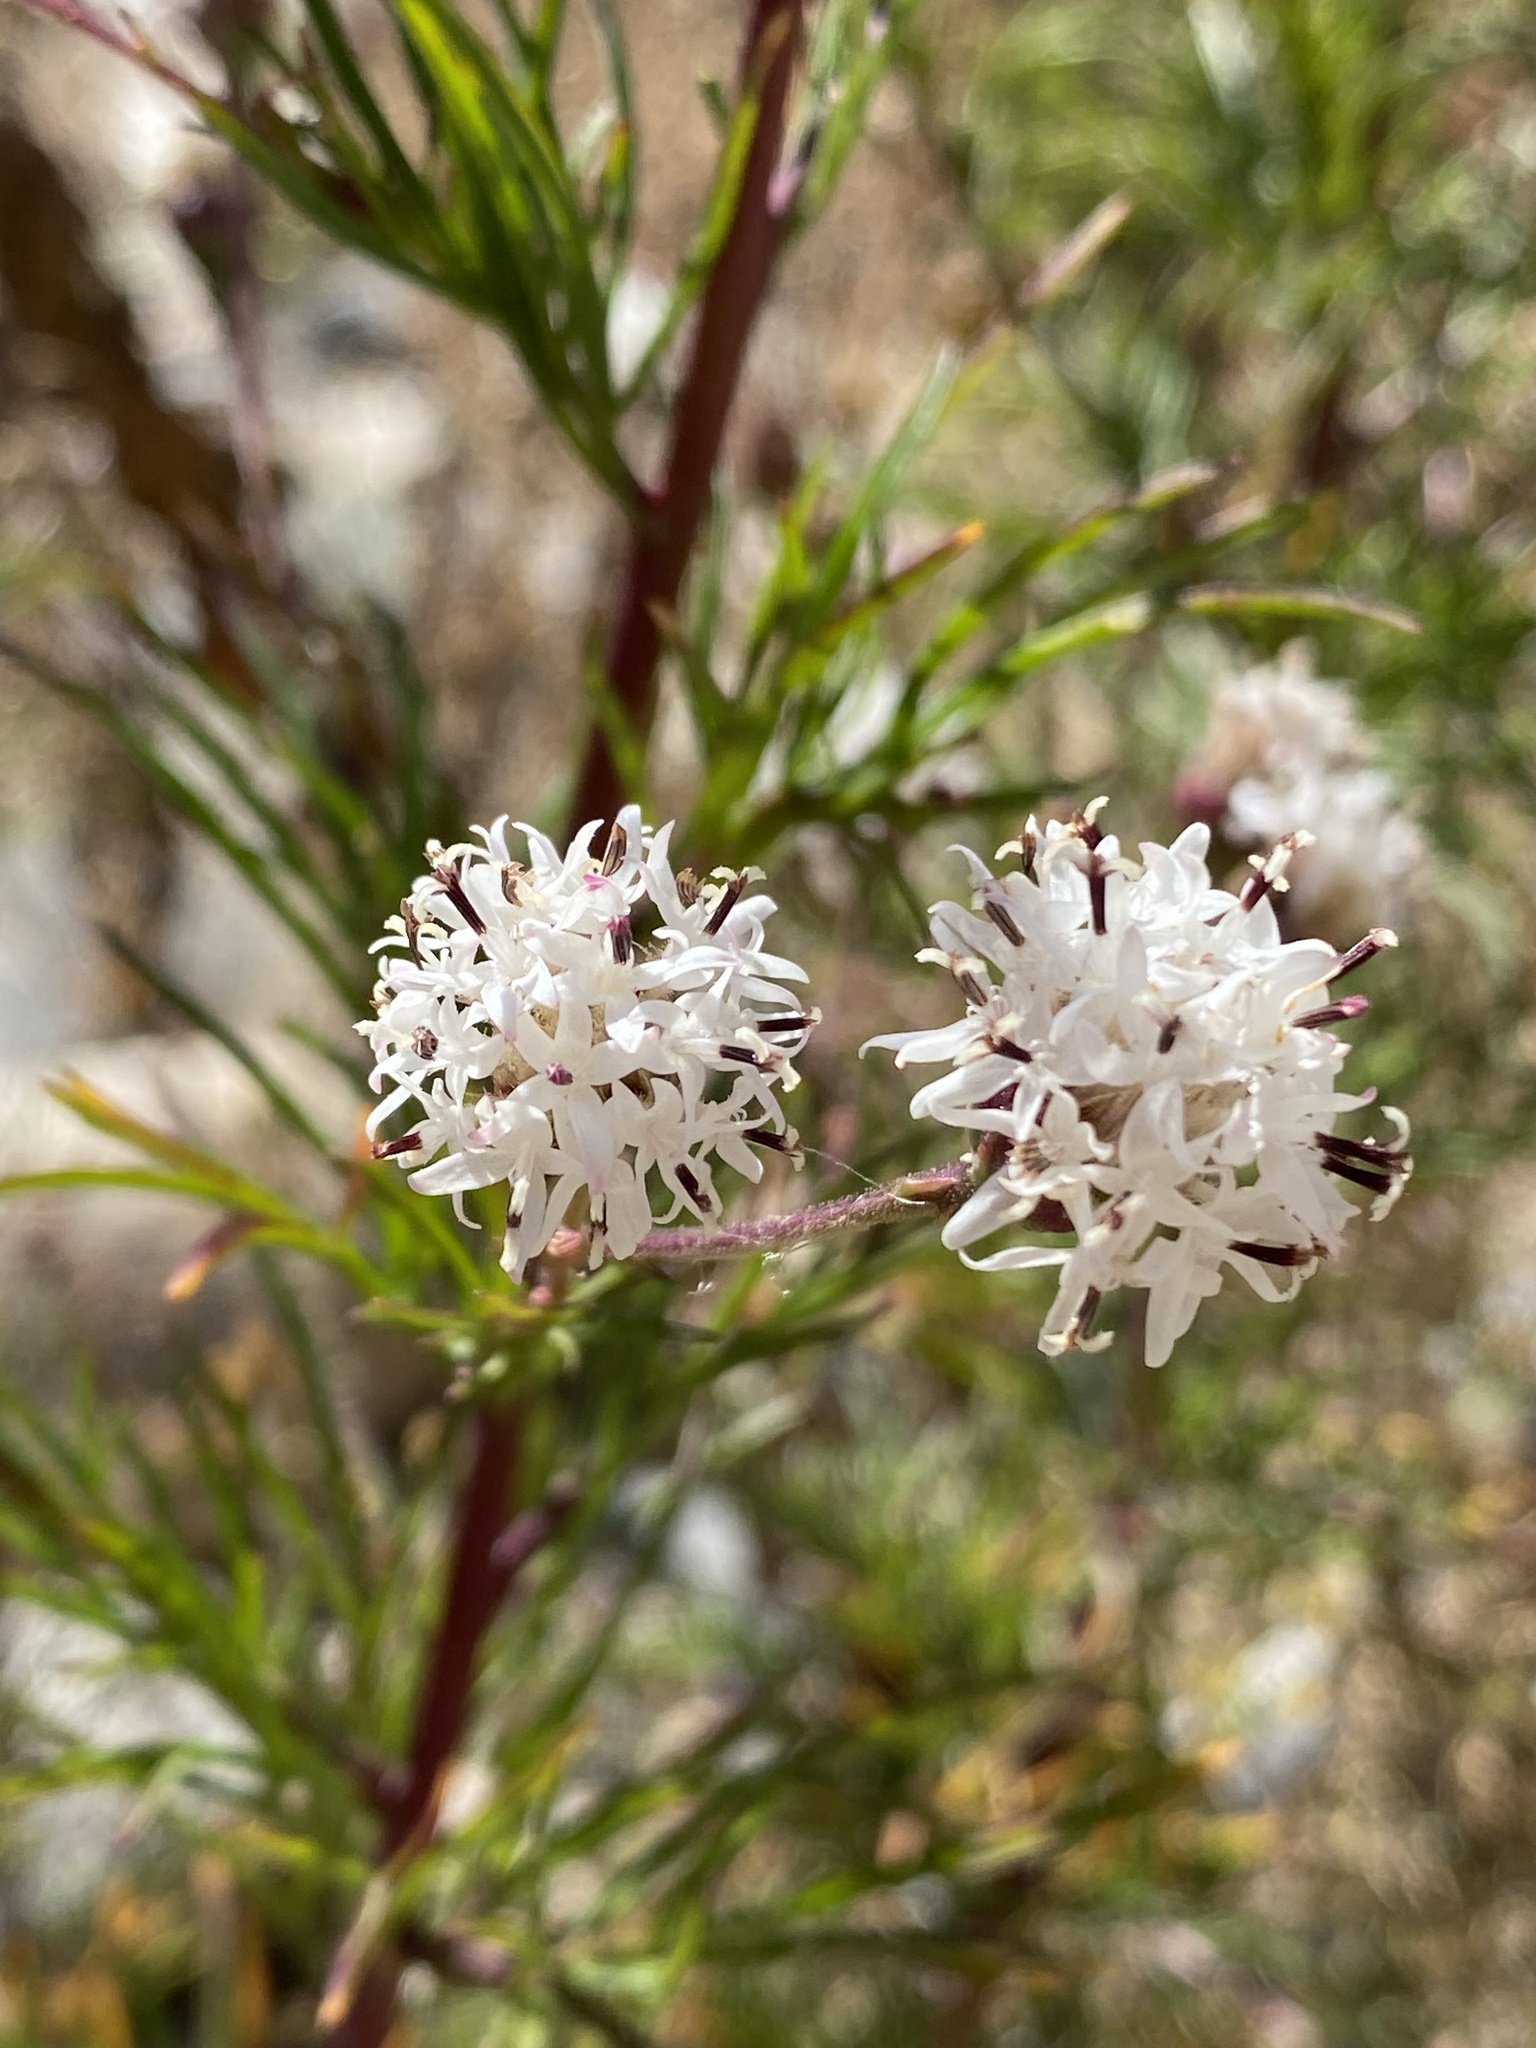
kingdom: Plantae
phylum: Tracheophyta
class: Magnoliopsida
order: Asterales
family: Asteraceae
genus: Hymenothrix
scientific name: Hymenothrix wrightii
